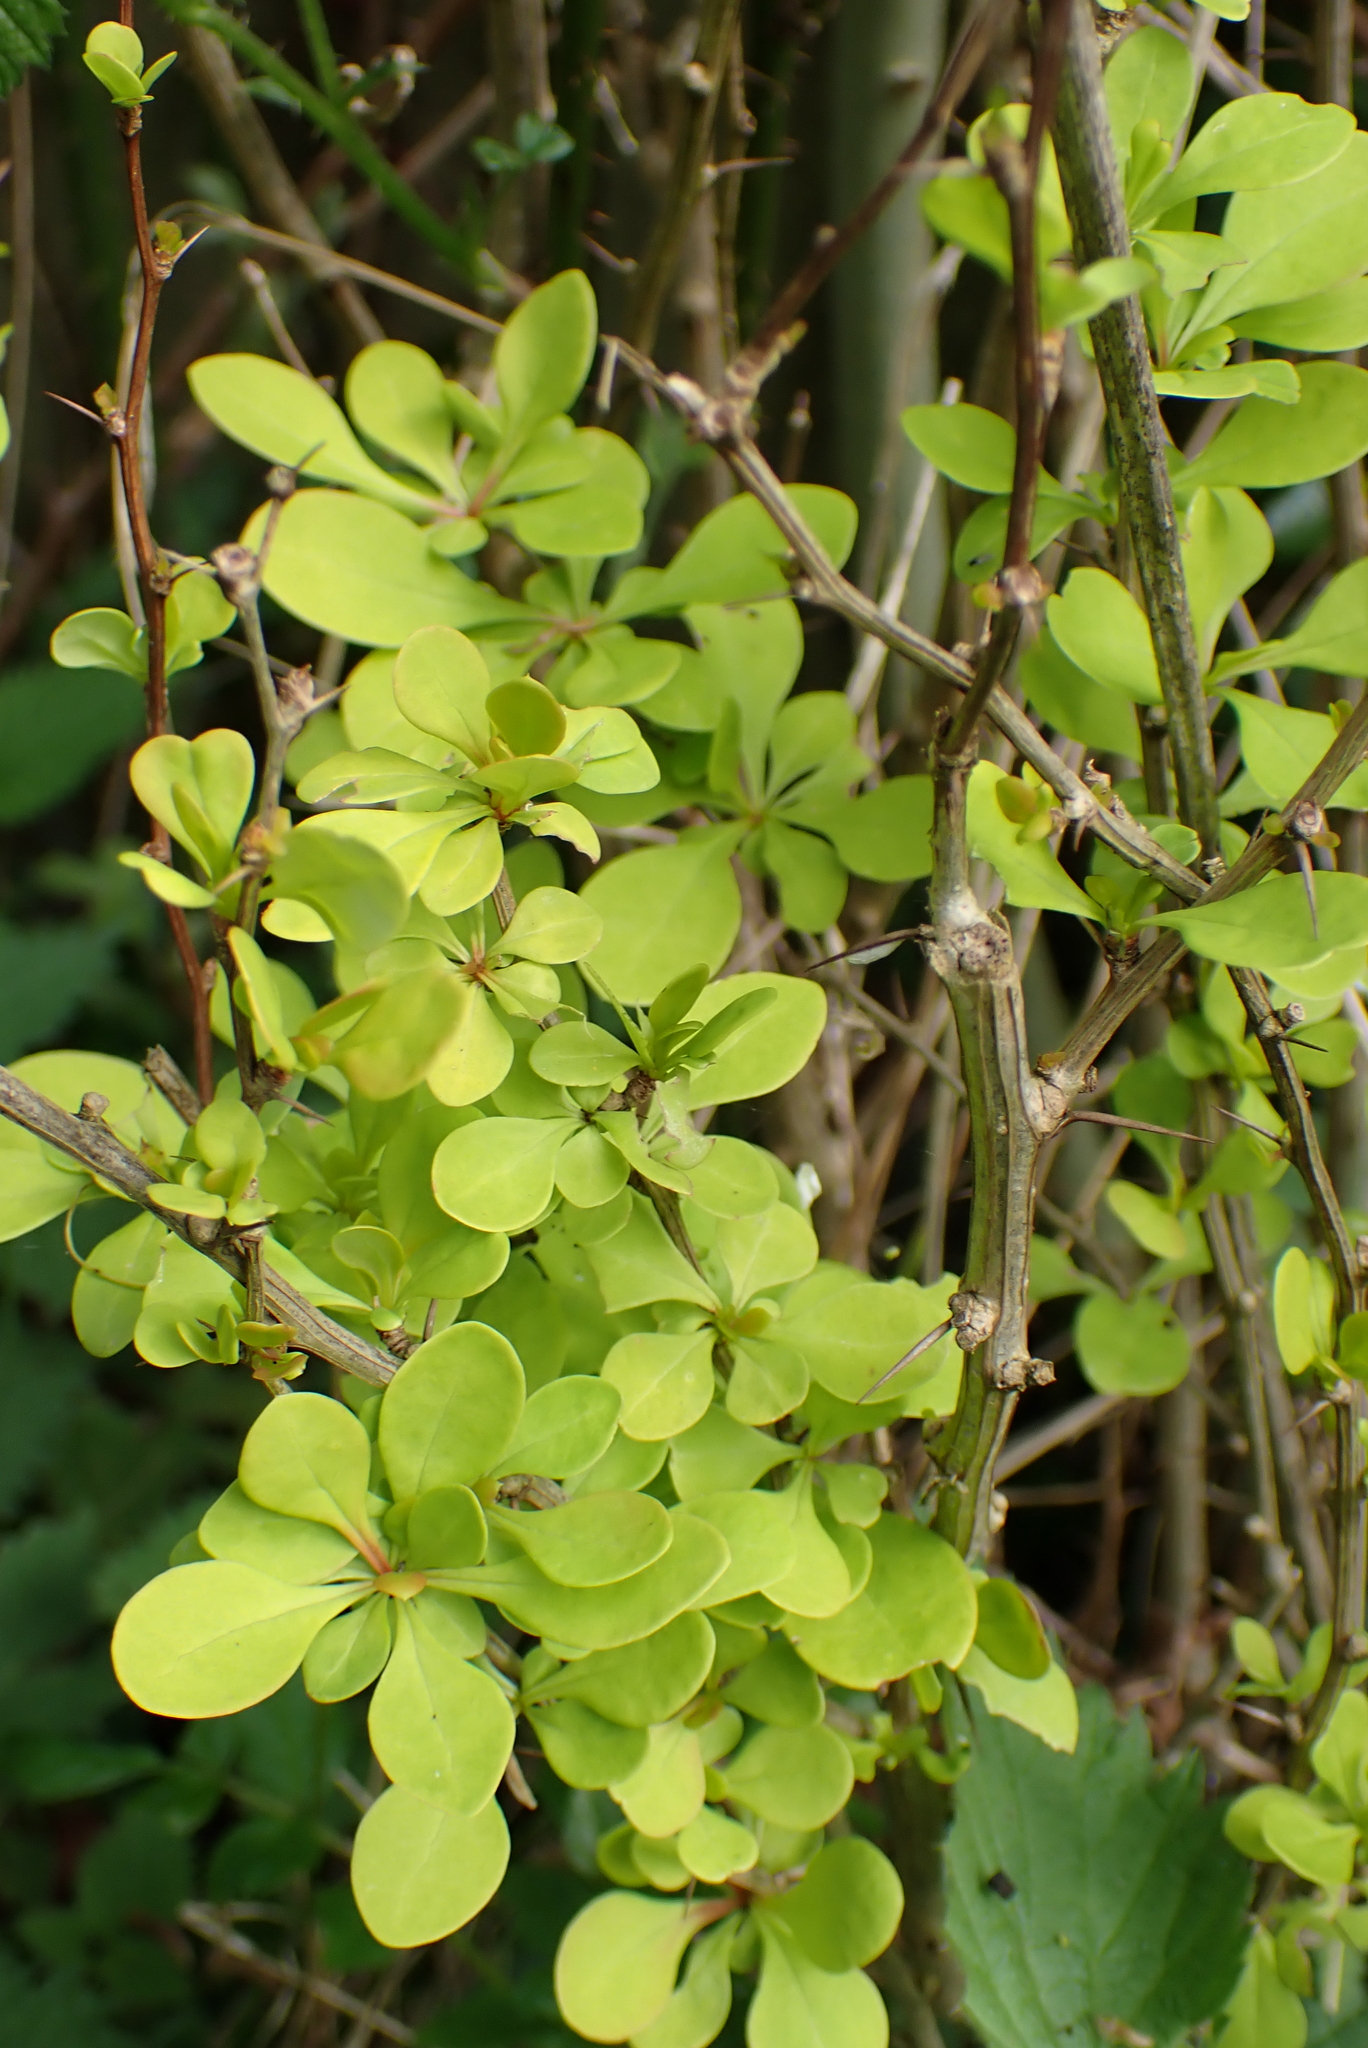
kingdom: Plantae
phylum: Tracheophyta
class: Magnoliopsida
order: Ranunculales
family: Berberidaceae
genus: Berberis
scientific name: Berberis thunbergii
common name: Japanese barberry
